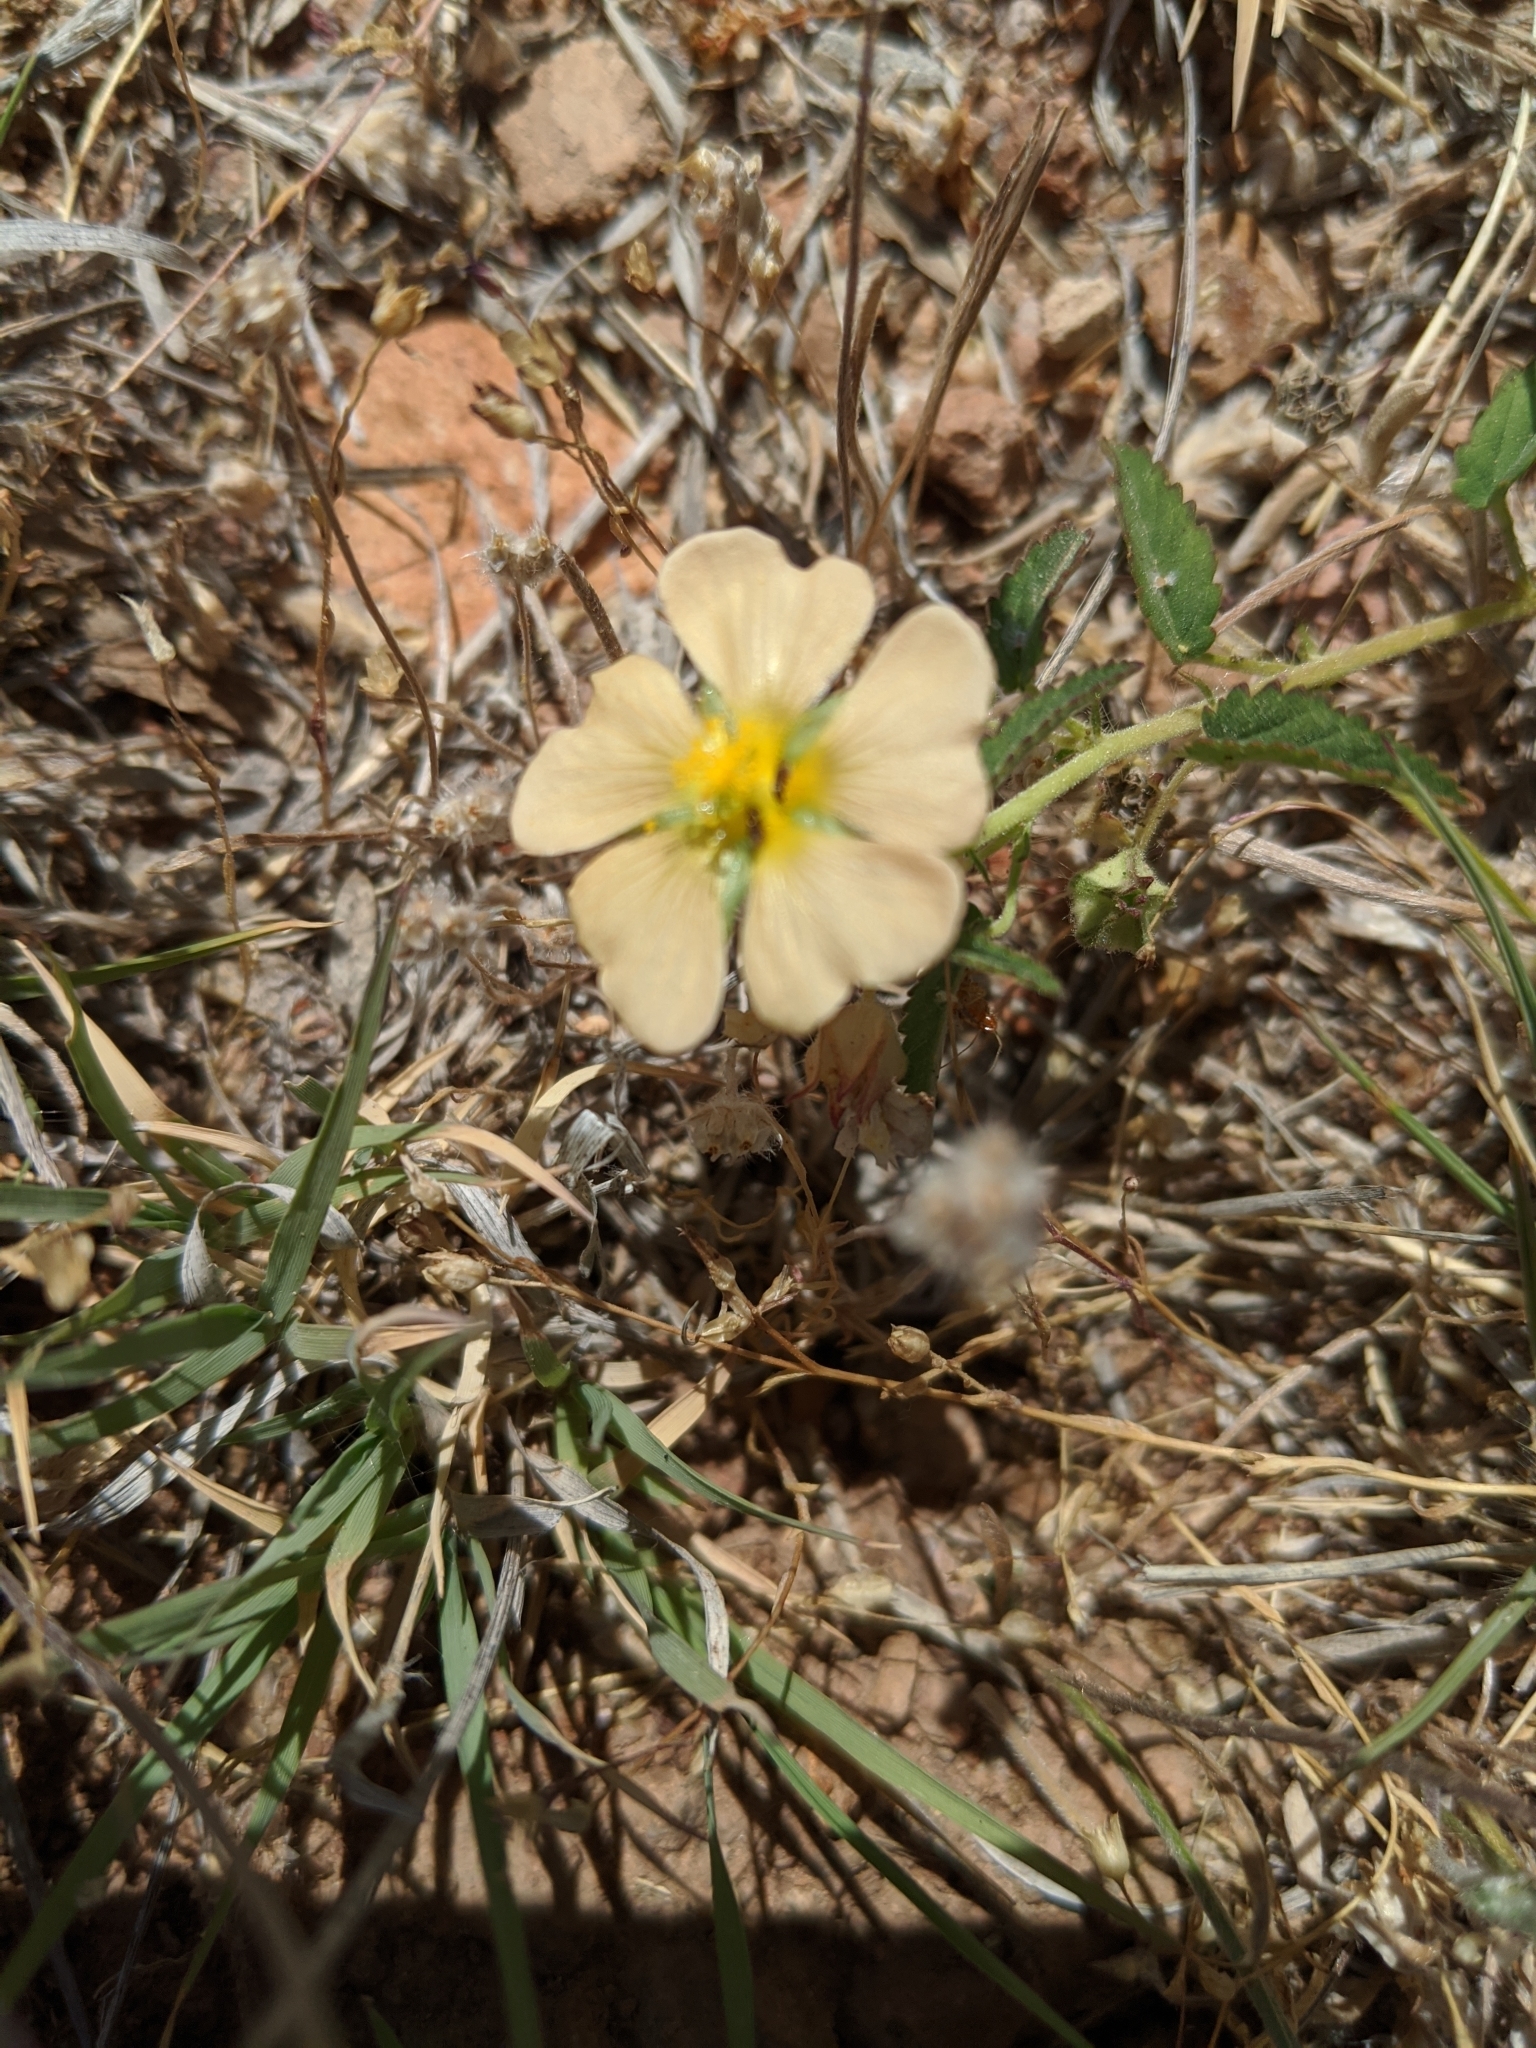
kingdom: Plantae
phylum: Tracheophyta
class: Magnoliopsida
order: Malvales
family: Malvaceae
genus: Sida
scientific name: Sida abutilifolia
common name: Spreading fanpetals
